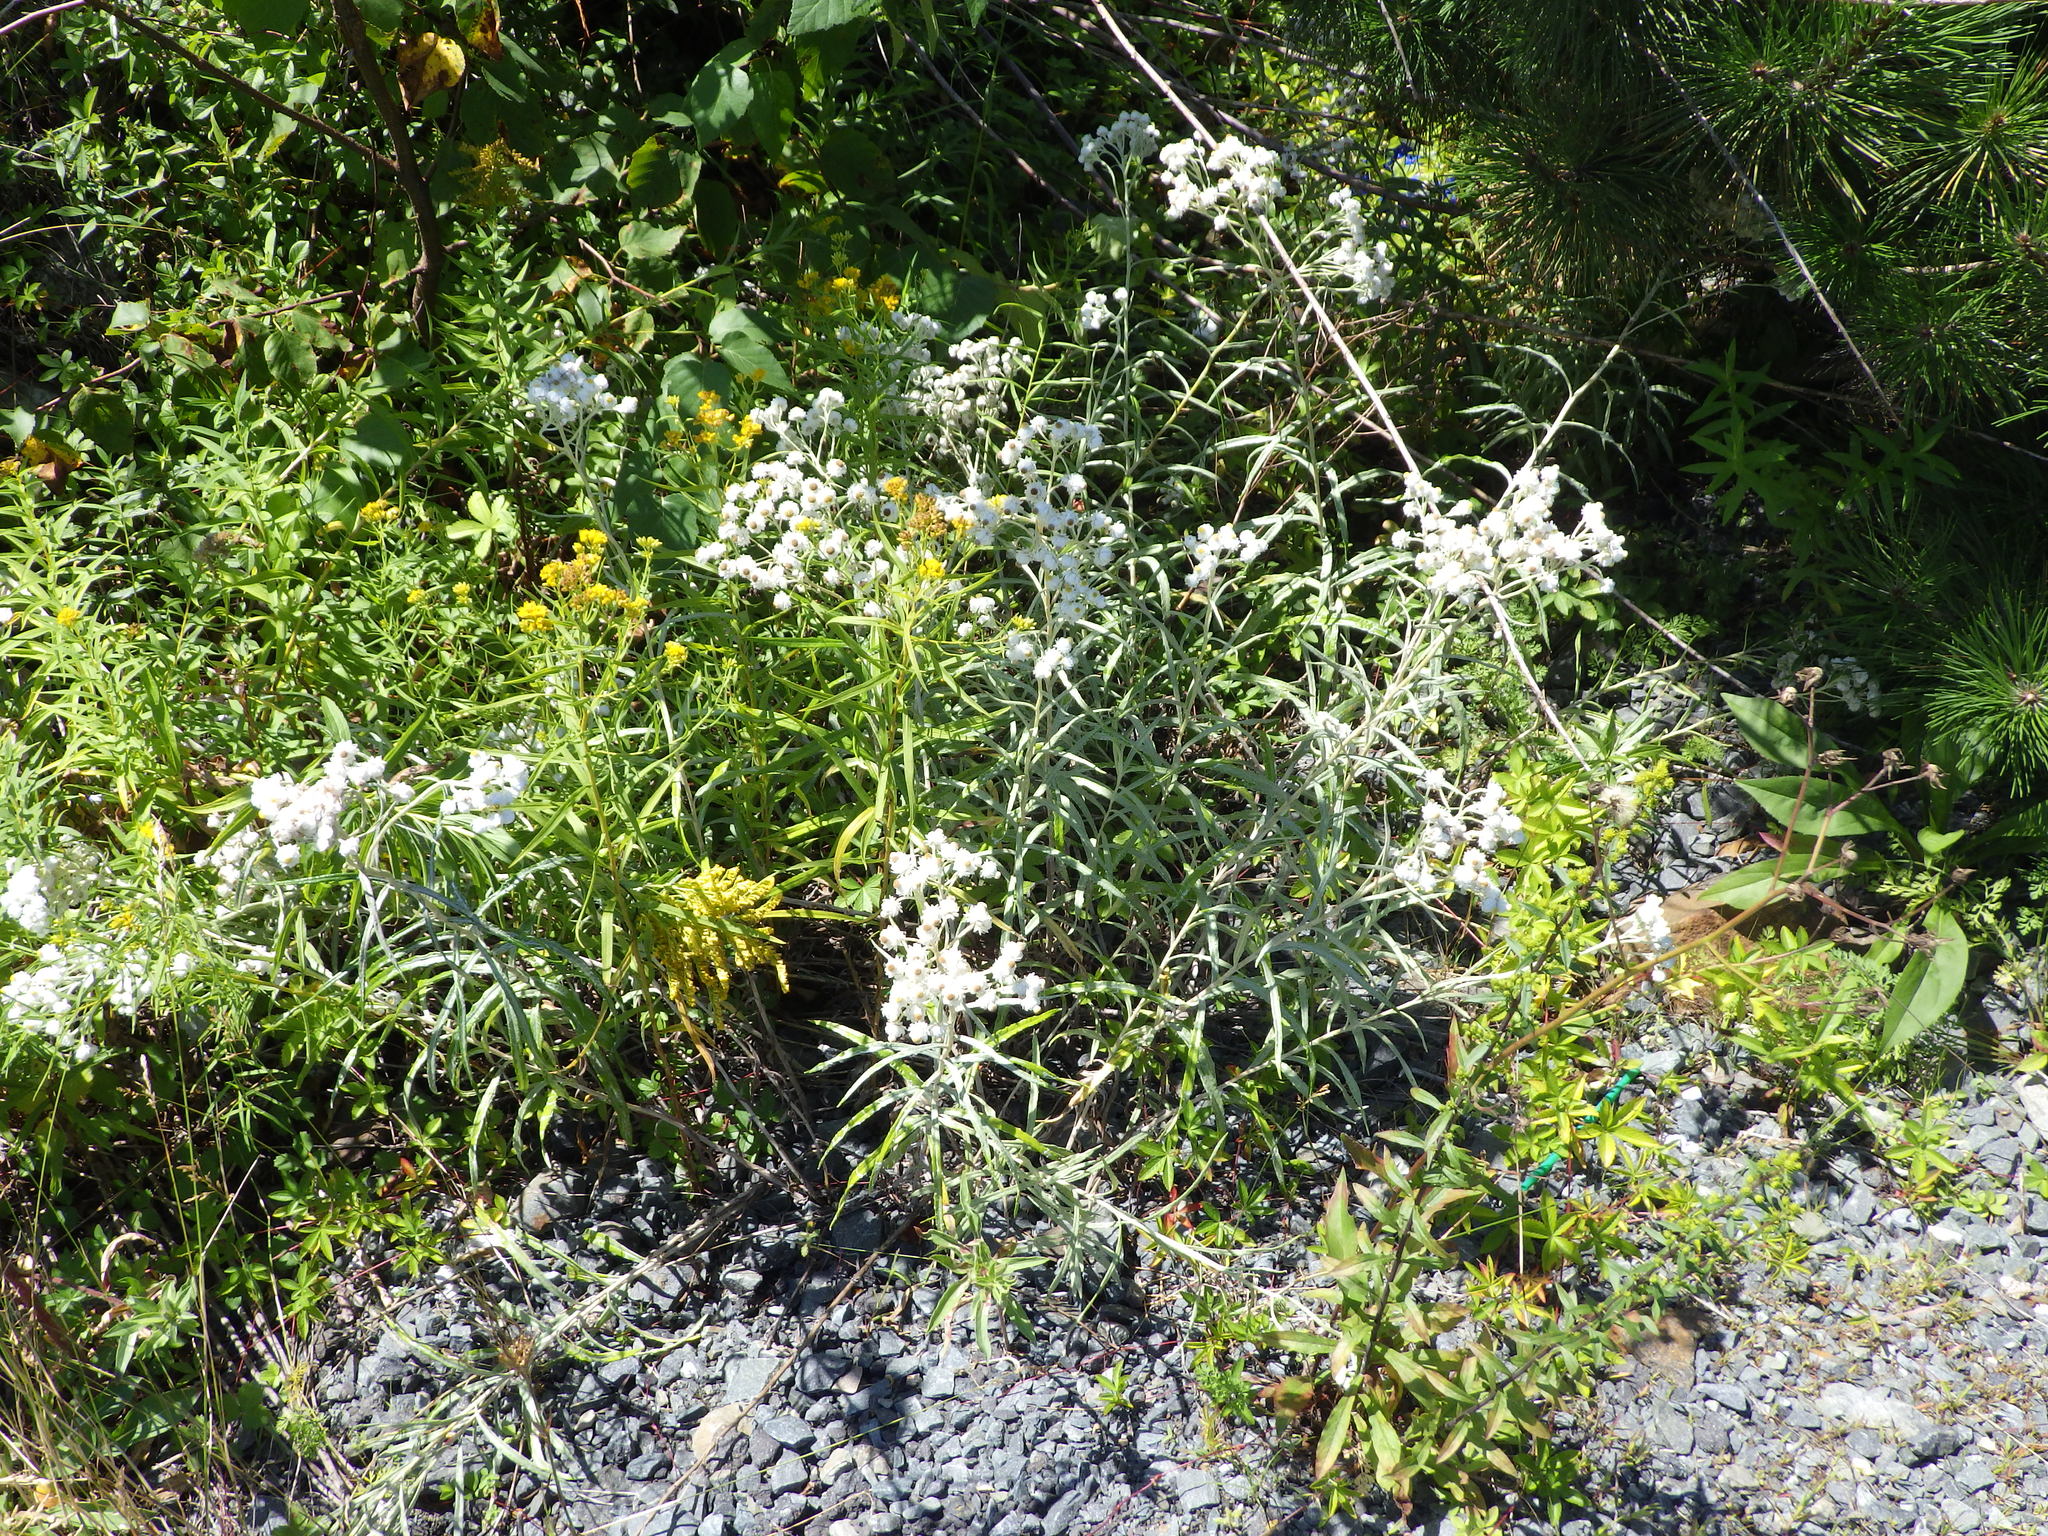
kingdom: Plantae
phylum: Tracheophyta
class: Magnoliopsida
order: Asterales
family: Asteraceae
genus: Anaphalis
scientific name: Anaphalis margaritacea
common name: Pearly everlasting
